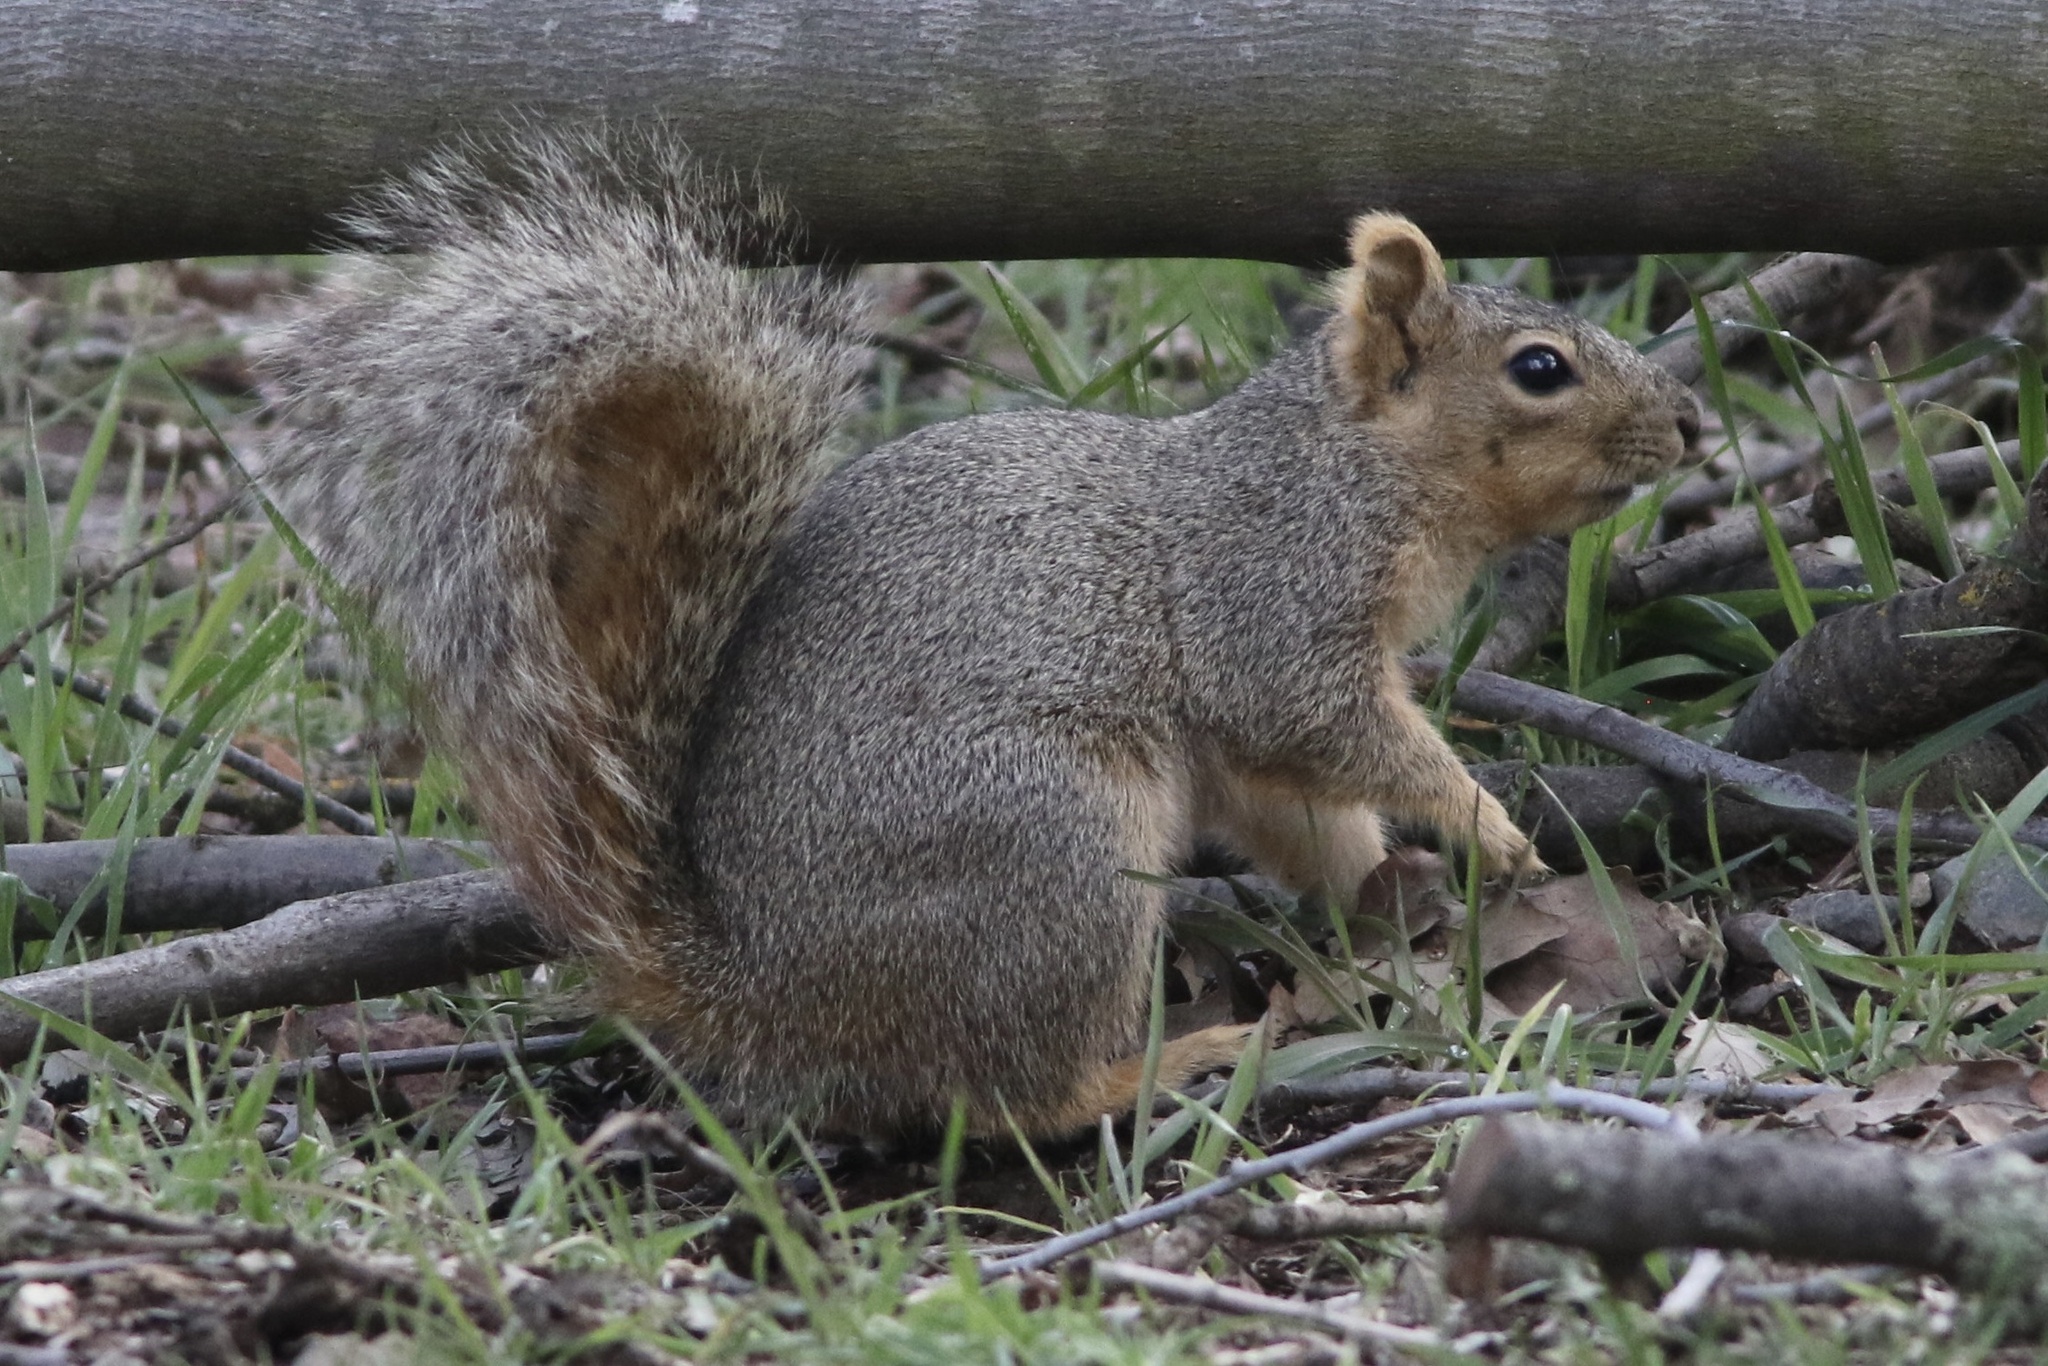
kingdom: Animalia
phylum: Chordata
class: Mammalia
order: Rodentia
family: Sciuridae
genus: Sciurus
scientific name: Sciurus niger
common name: Fox squirrel
